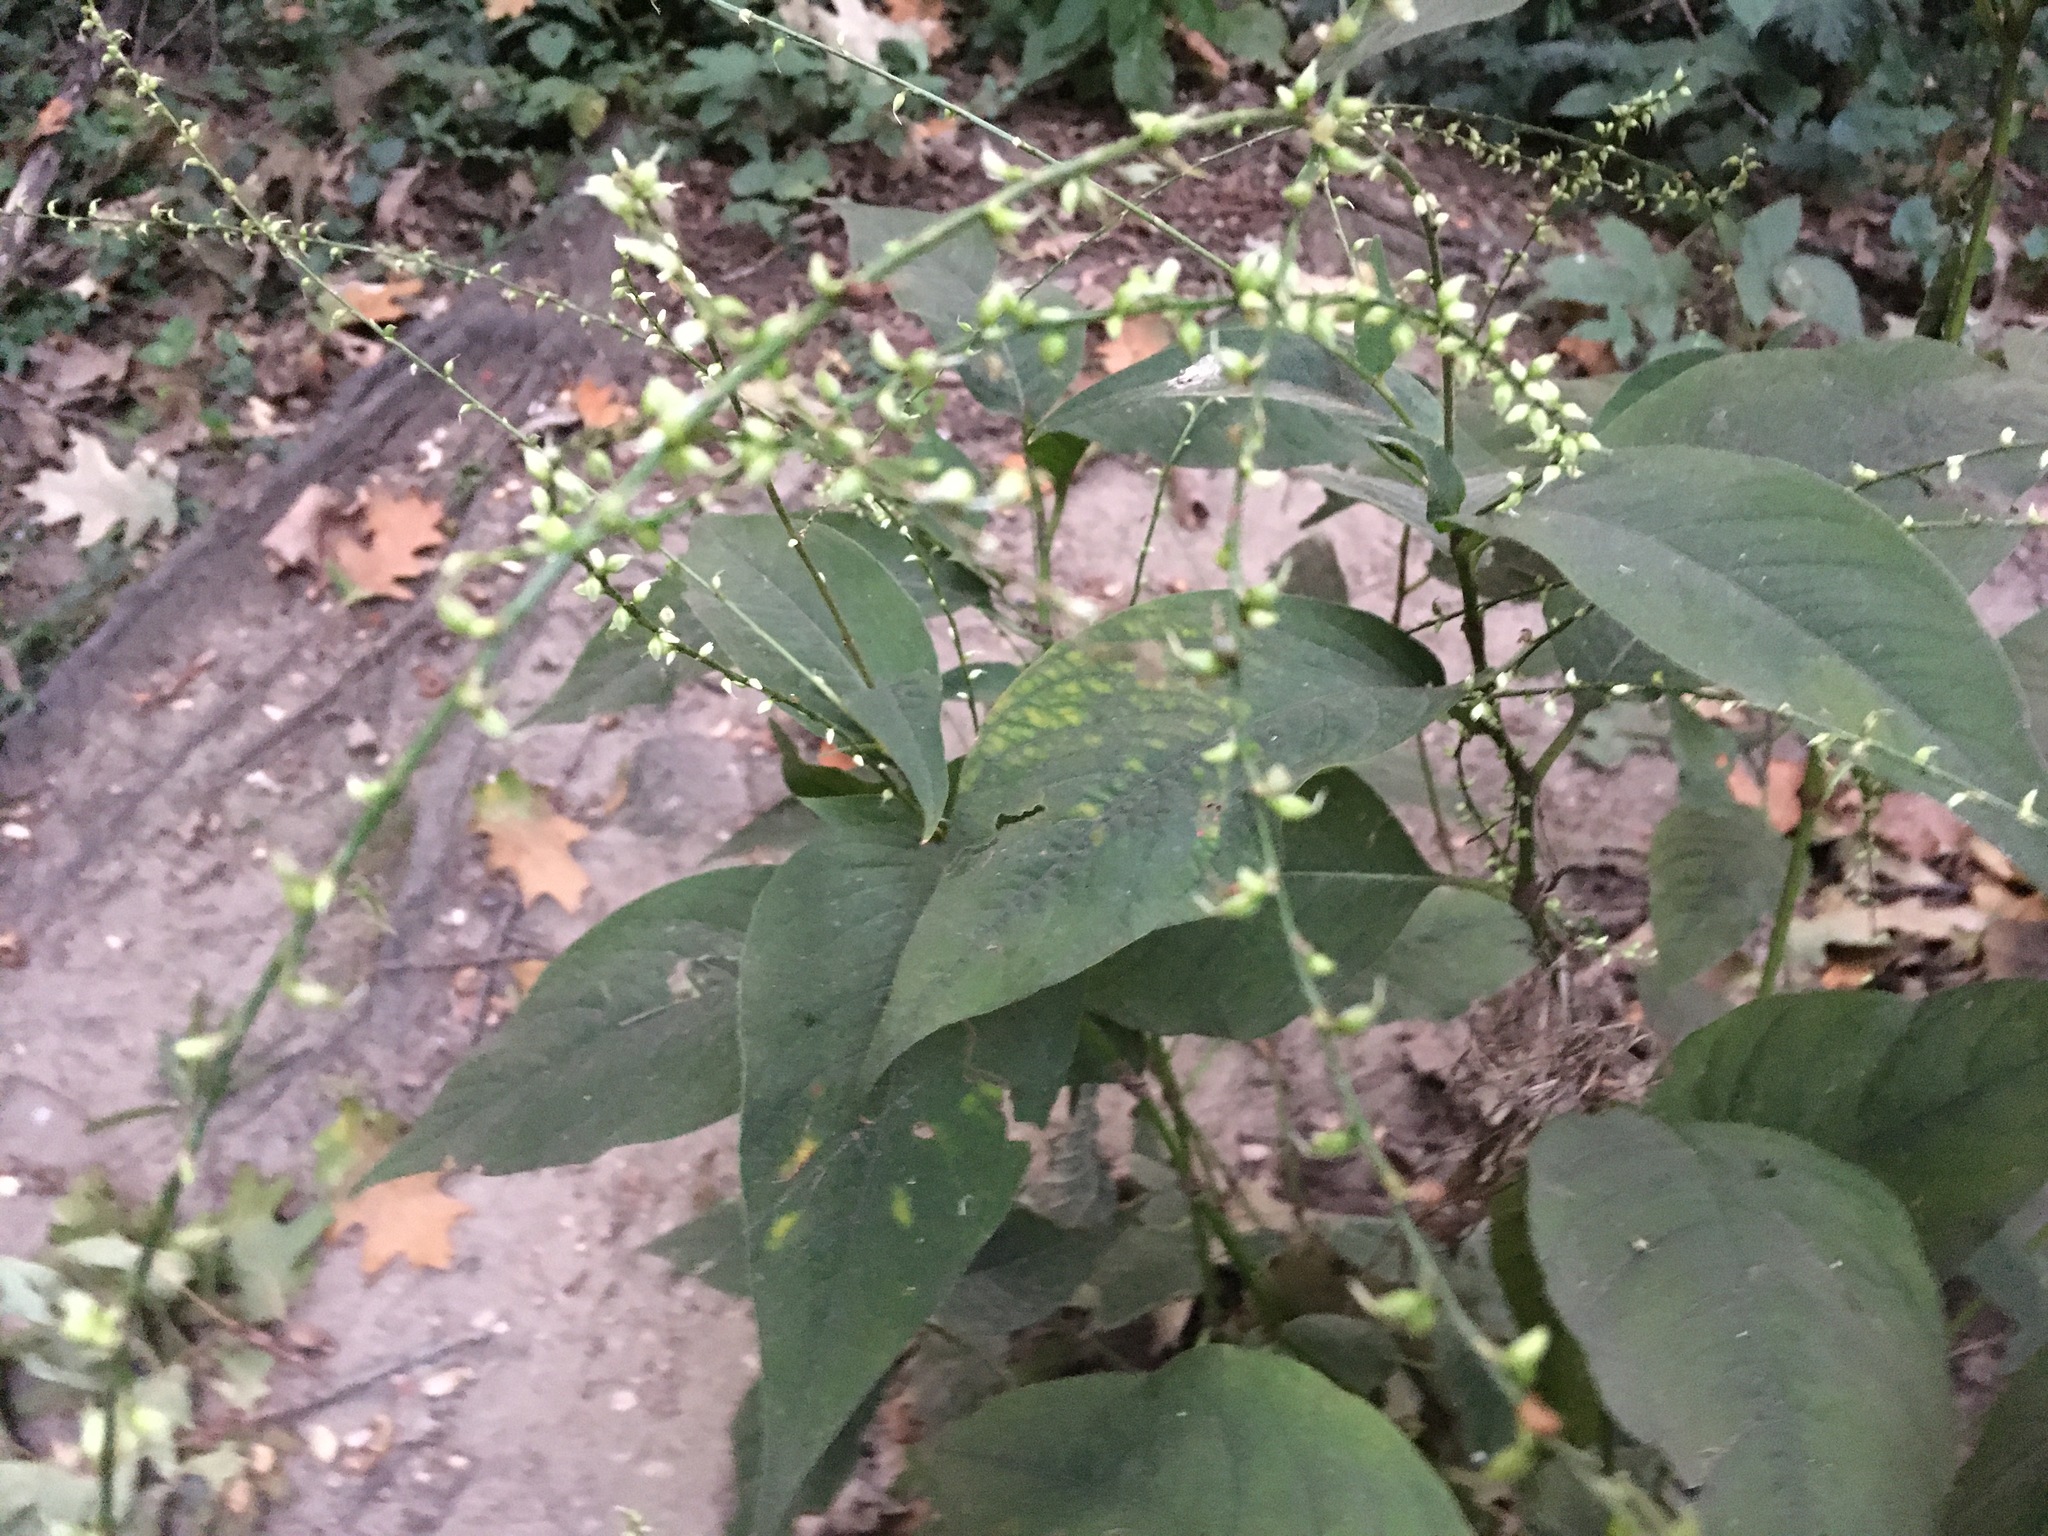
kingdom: Plantae
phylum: Tracheophyta
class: Magnoliopsida
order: Caryophyllales
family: Polygonaceae
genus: Persicaria
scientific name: Persicaria virginiana
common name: Jumpseed
